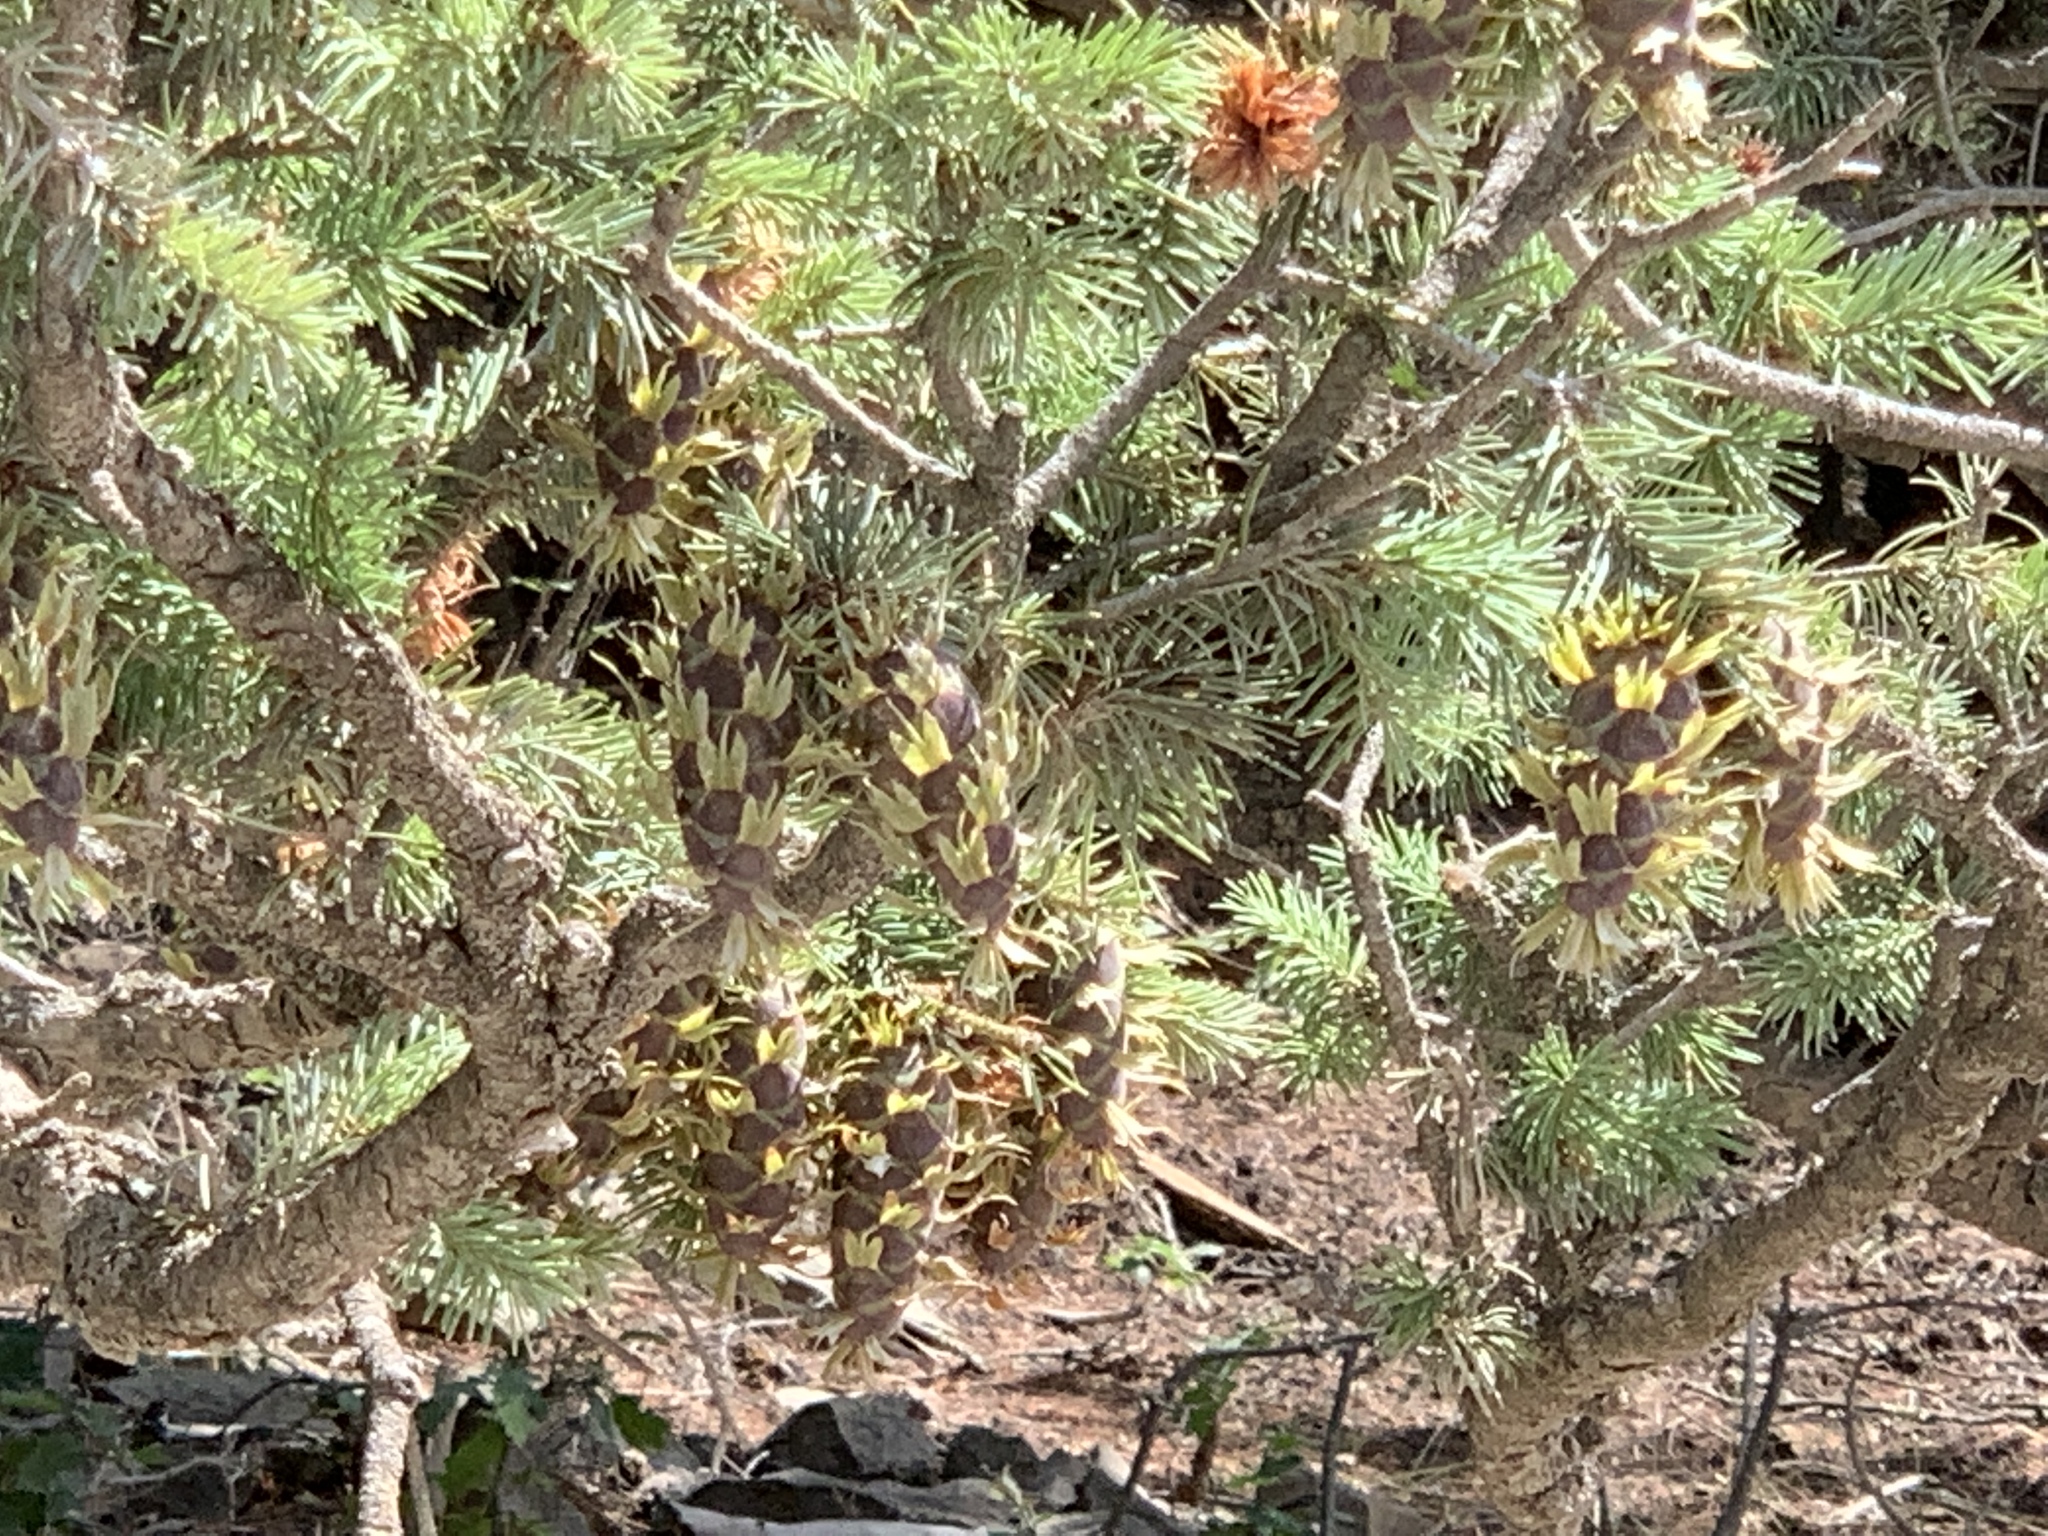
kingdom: Plantae
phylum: Tracheophyta
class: Pinopsida
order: Pinales
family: Pinaceae
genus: Pseudotsuga
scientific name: Pseudotsuga menziesii
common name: Douglas fir
